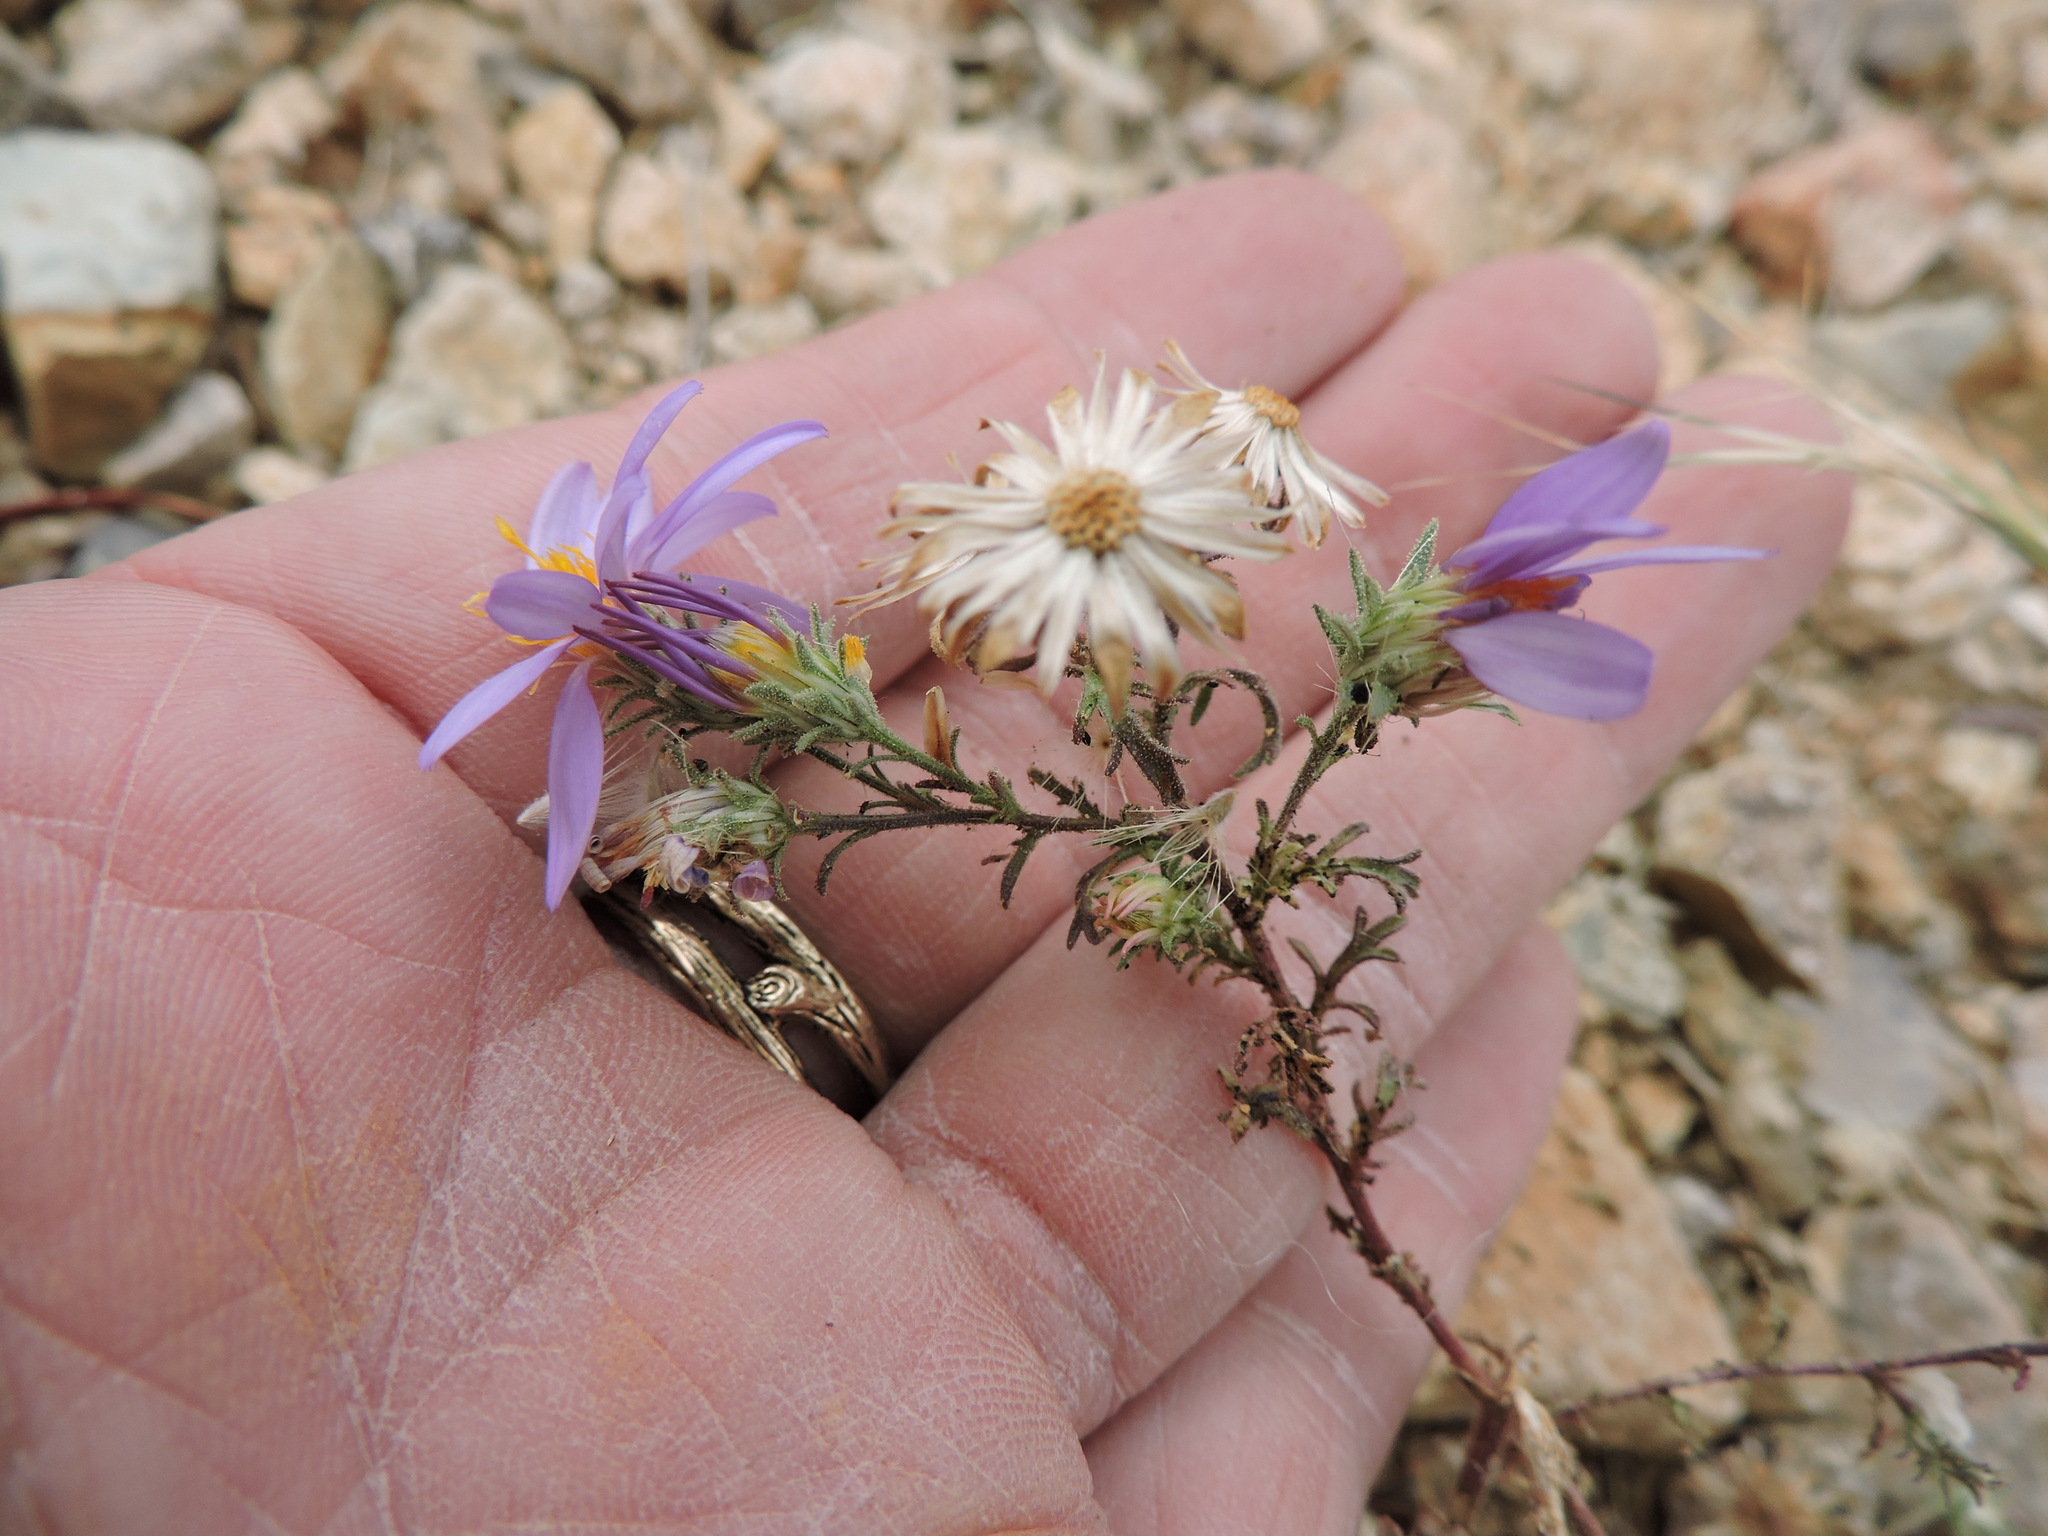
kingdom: Plantae
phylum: Tracheophyta
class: Magnoliopsida
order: Asterales
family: Asteraceae
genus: Machaeranthera
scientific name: Machaeranthera tagetina
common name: Mesa tansy-aster
